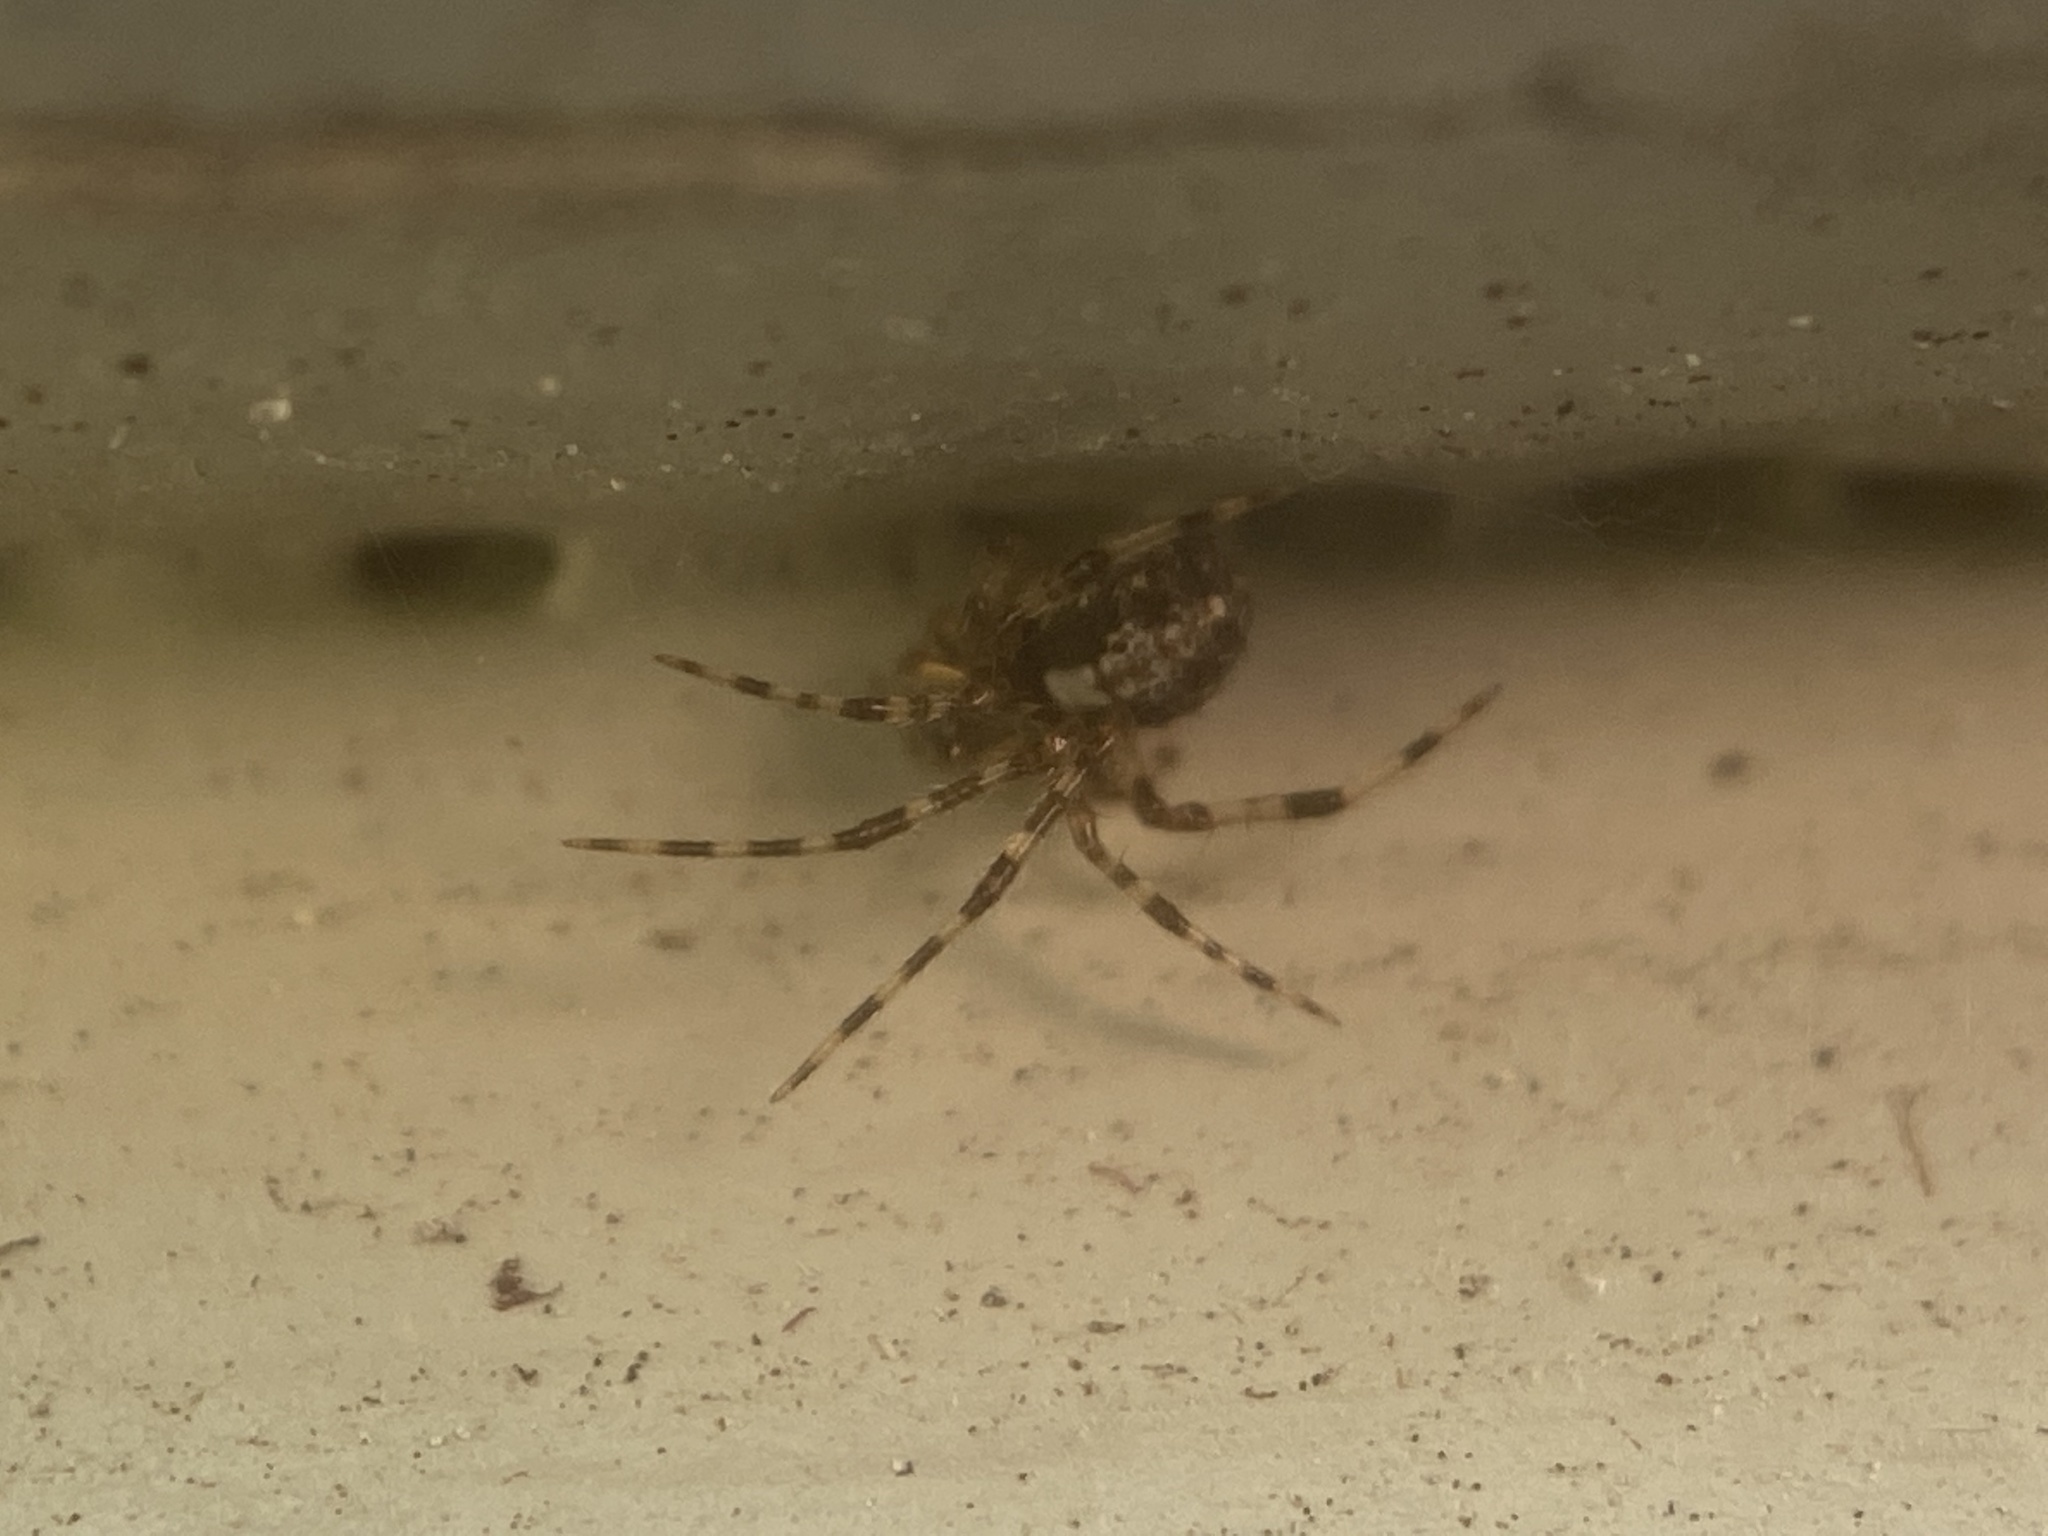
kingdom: Animalia
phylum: Arthropoda
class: Arachnida
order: Araneae
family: Theridiidae
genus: Yunohamella
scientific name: Yunohamella lyrica
